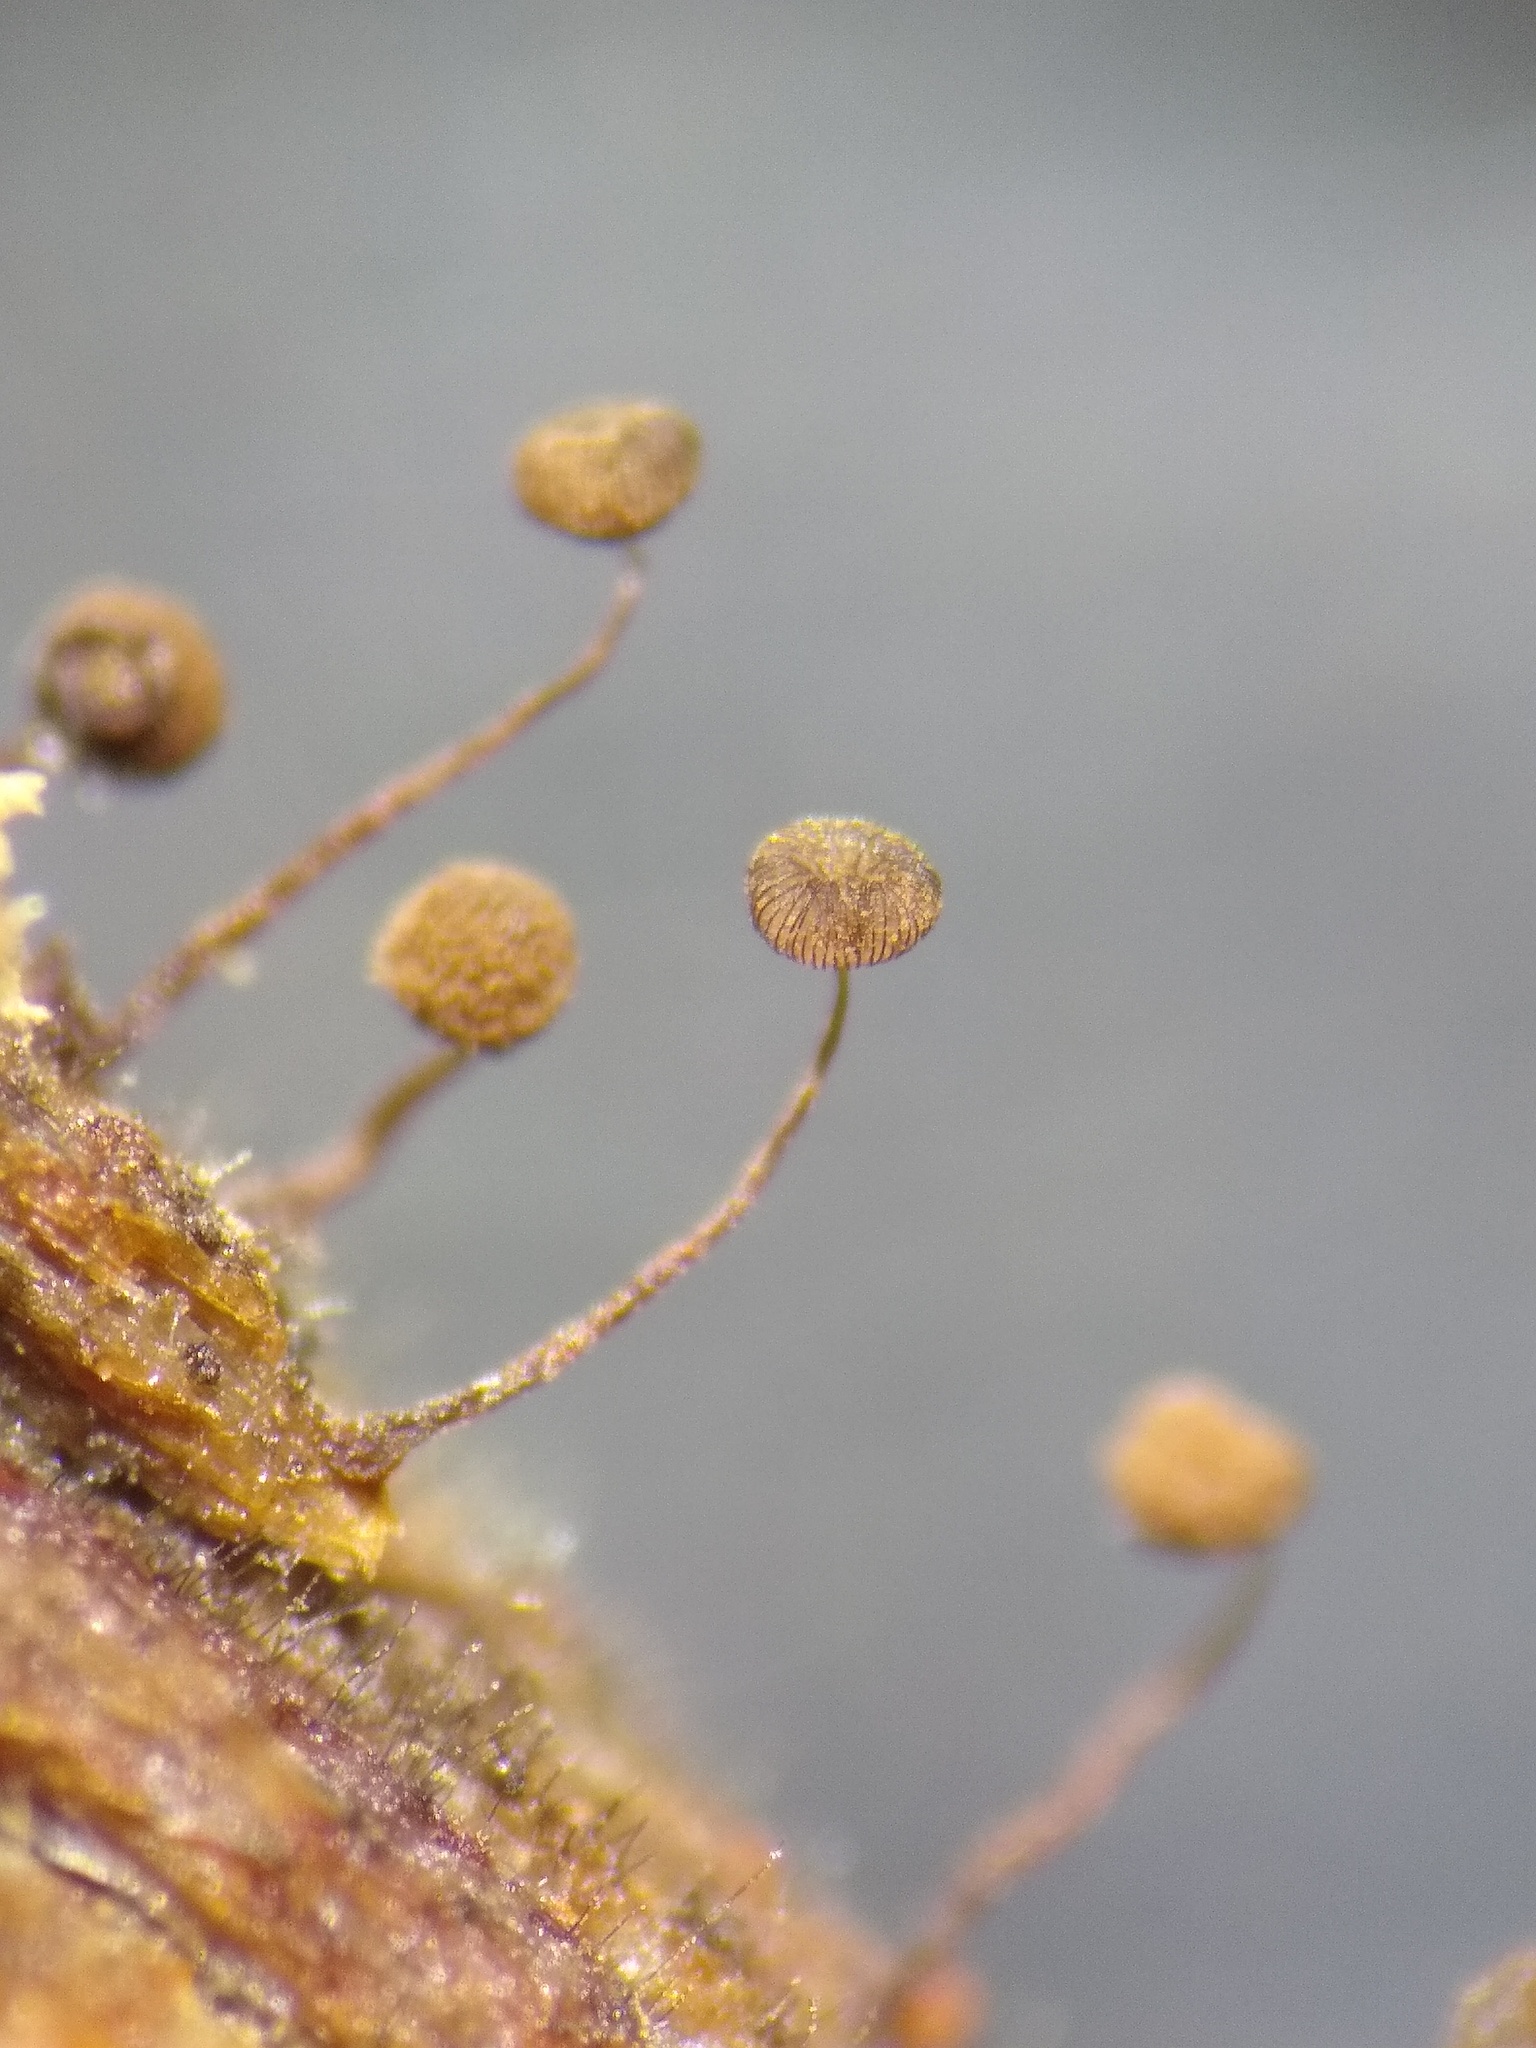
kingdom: Protozoa
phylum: Mycetozoa
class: Myxomycetes
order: Cribrariales
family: Cribrariaceae
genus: Cribraria
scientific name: Cribraria cancellata
